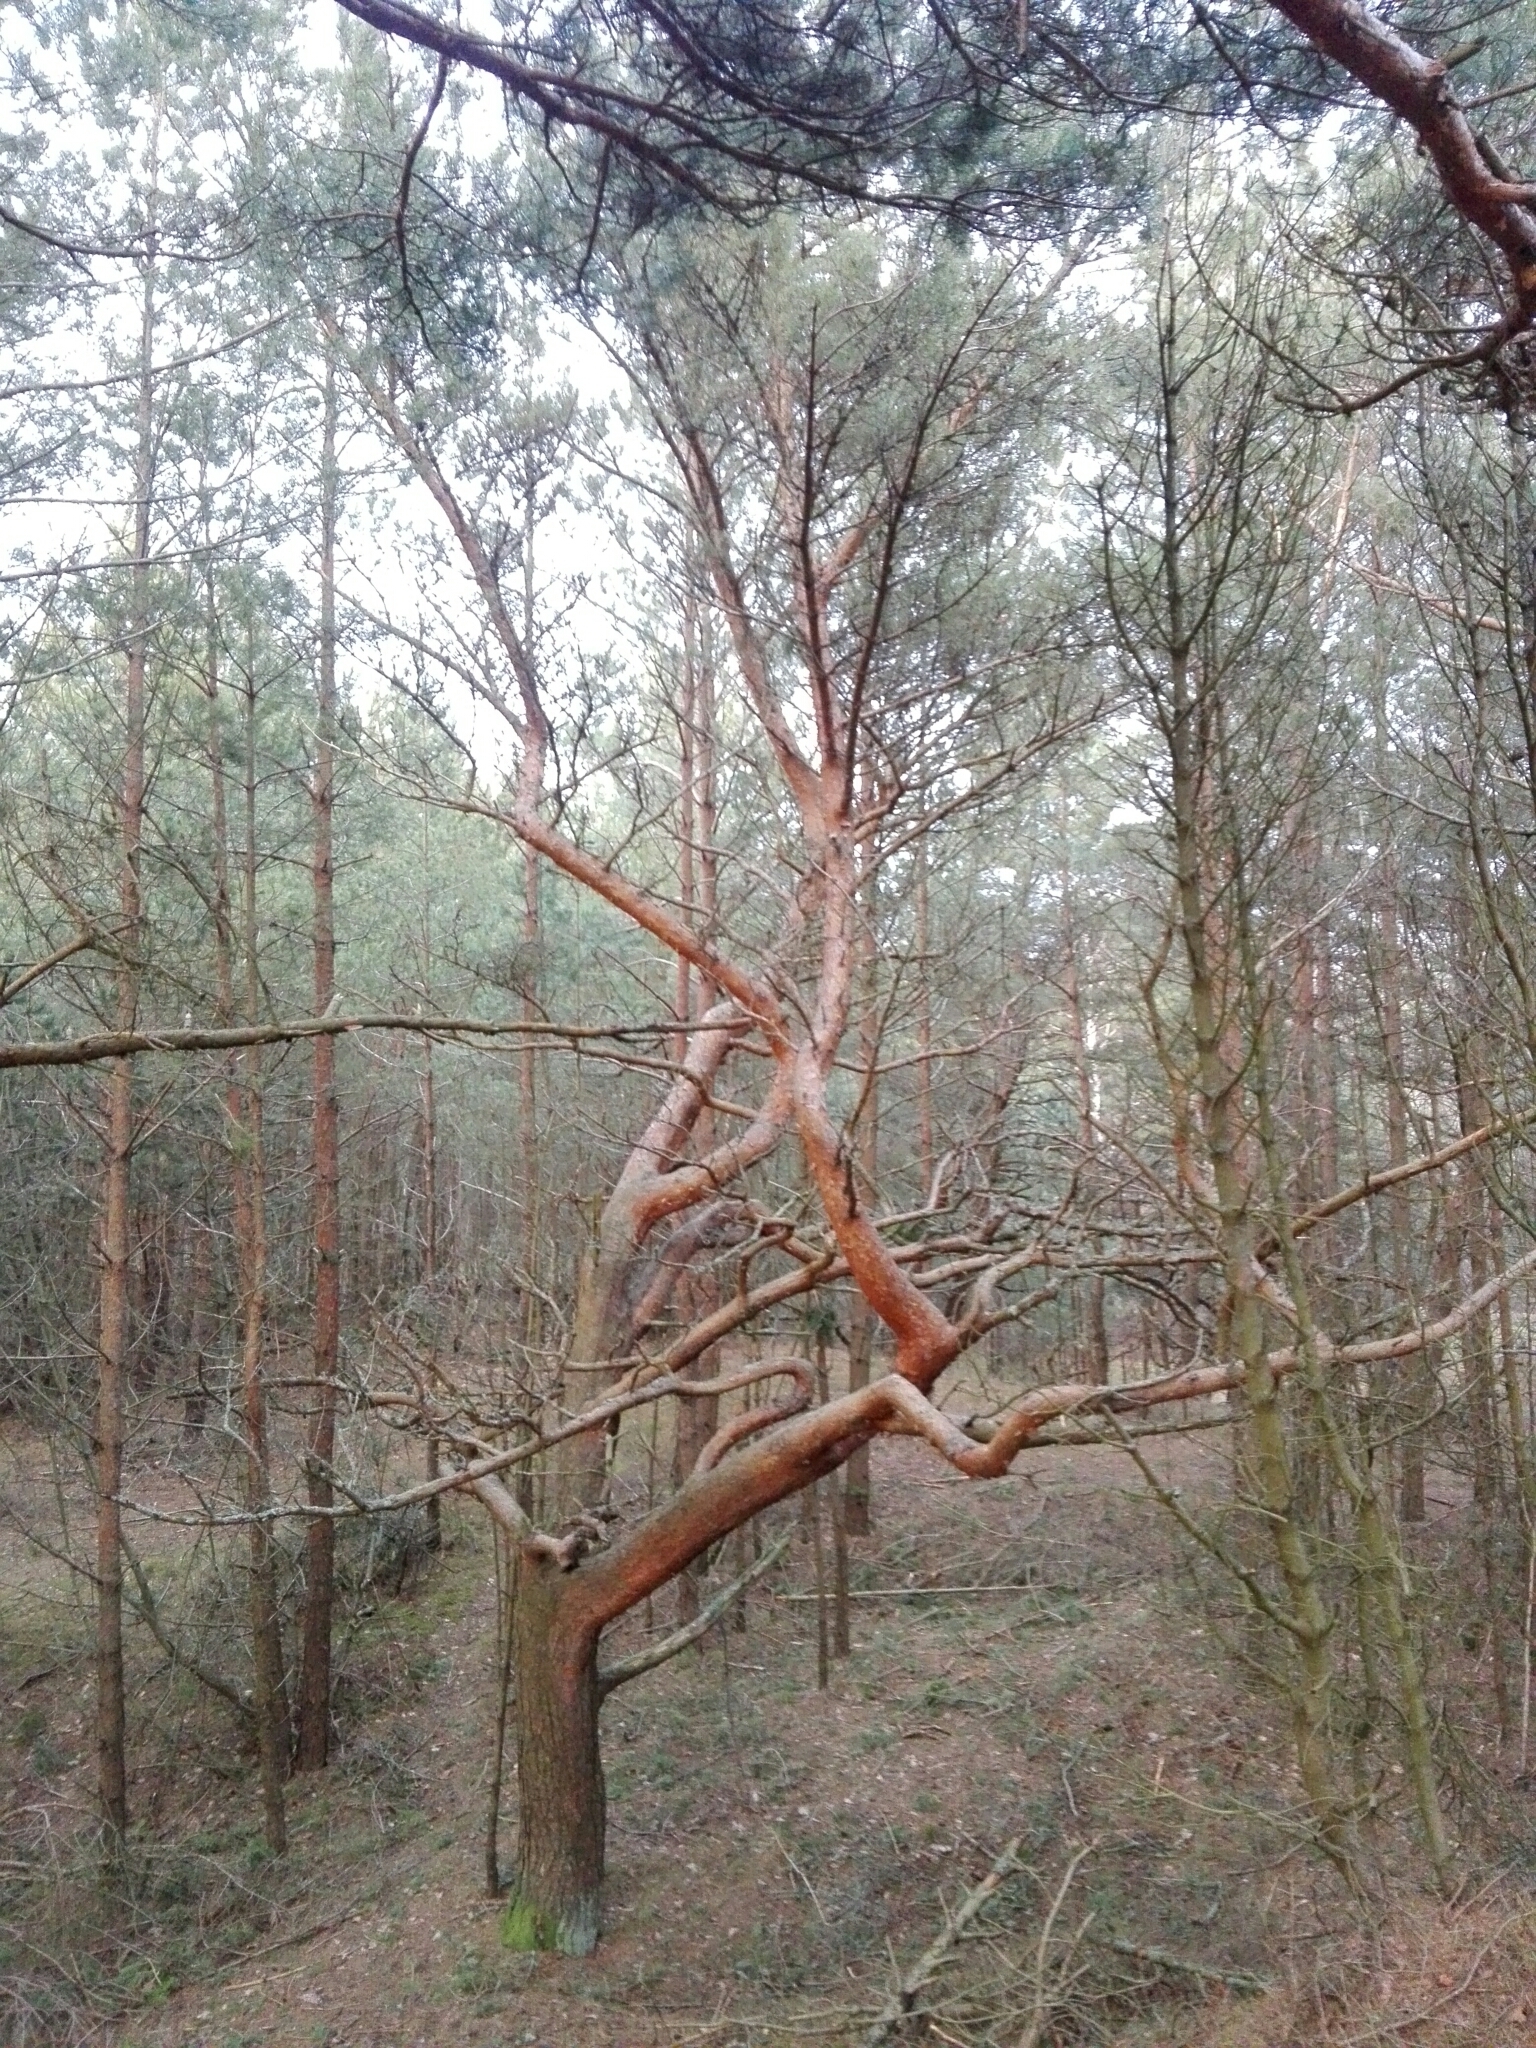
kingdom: Plantae
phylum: Tracheophyta
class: Pinopsida
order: Pinales
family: Pinaceae
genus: Pinus
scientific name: Pinus sylvestris
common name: Scots pine
